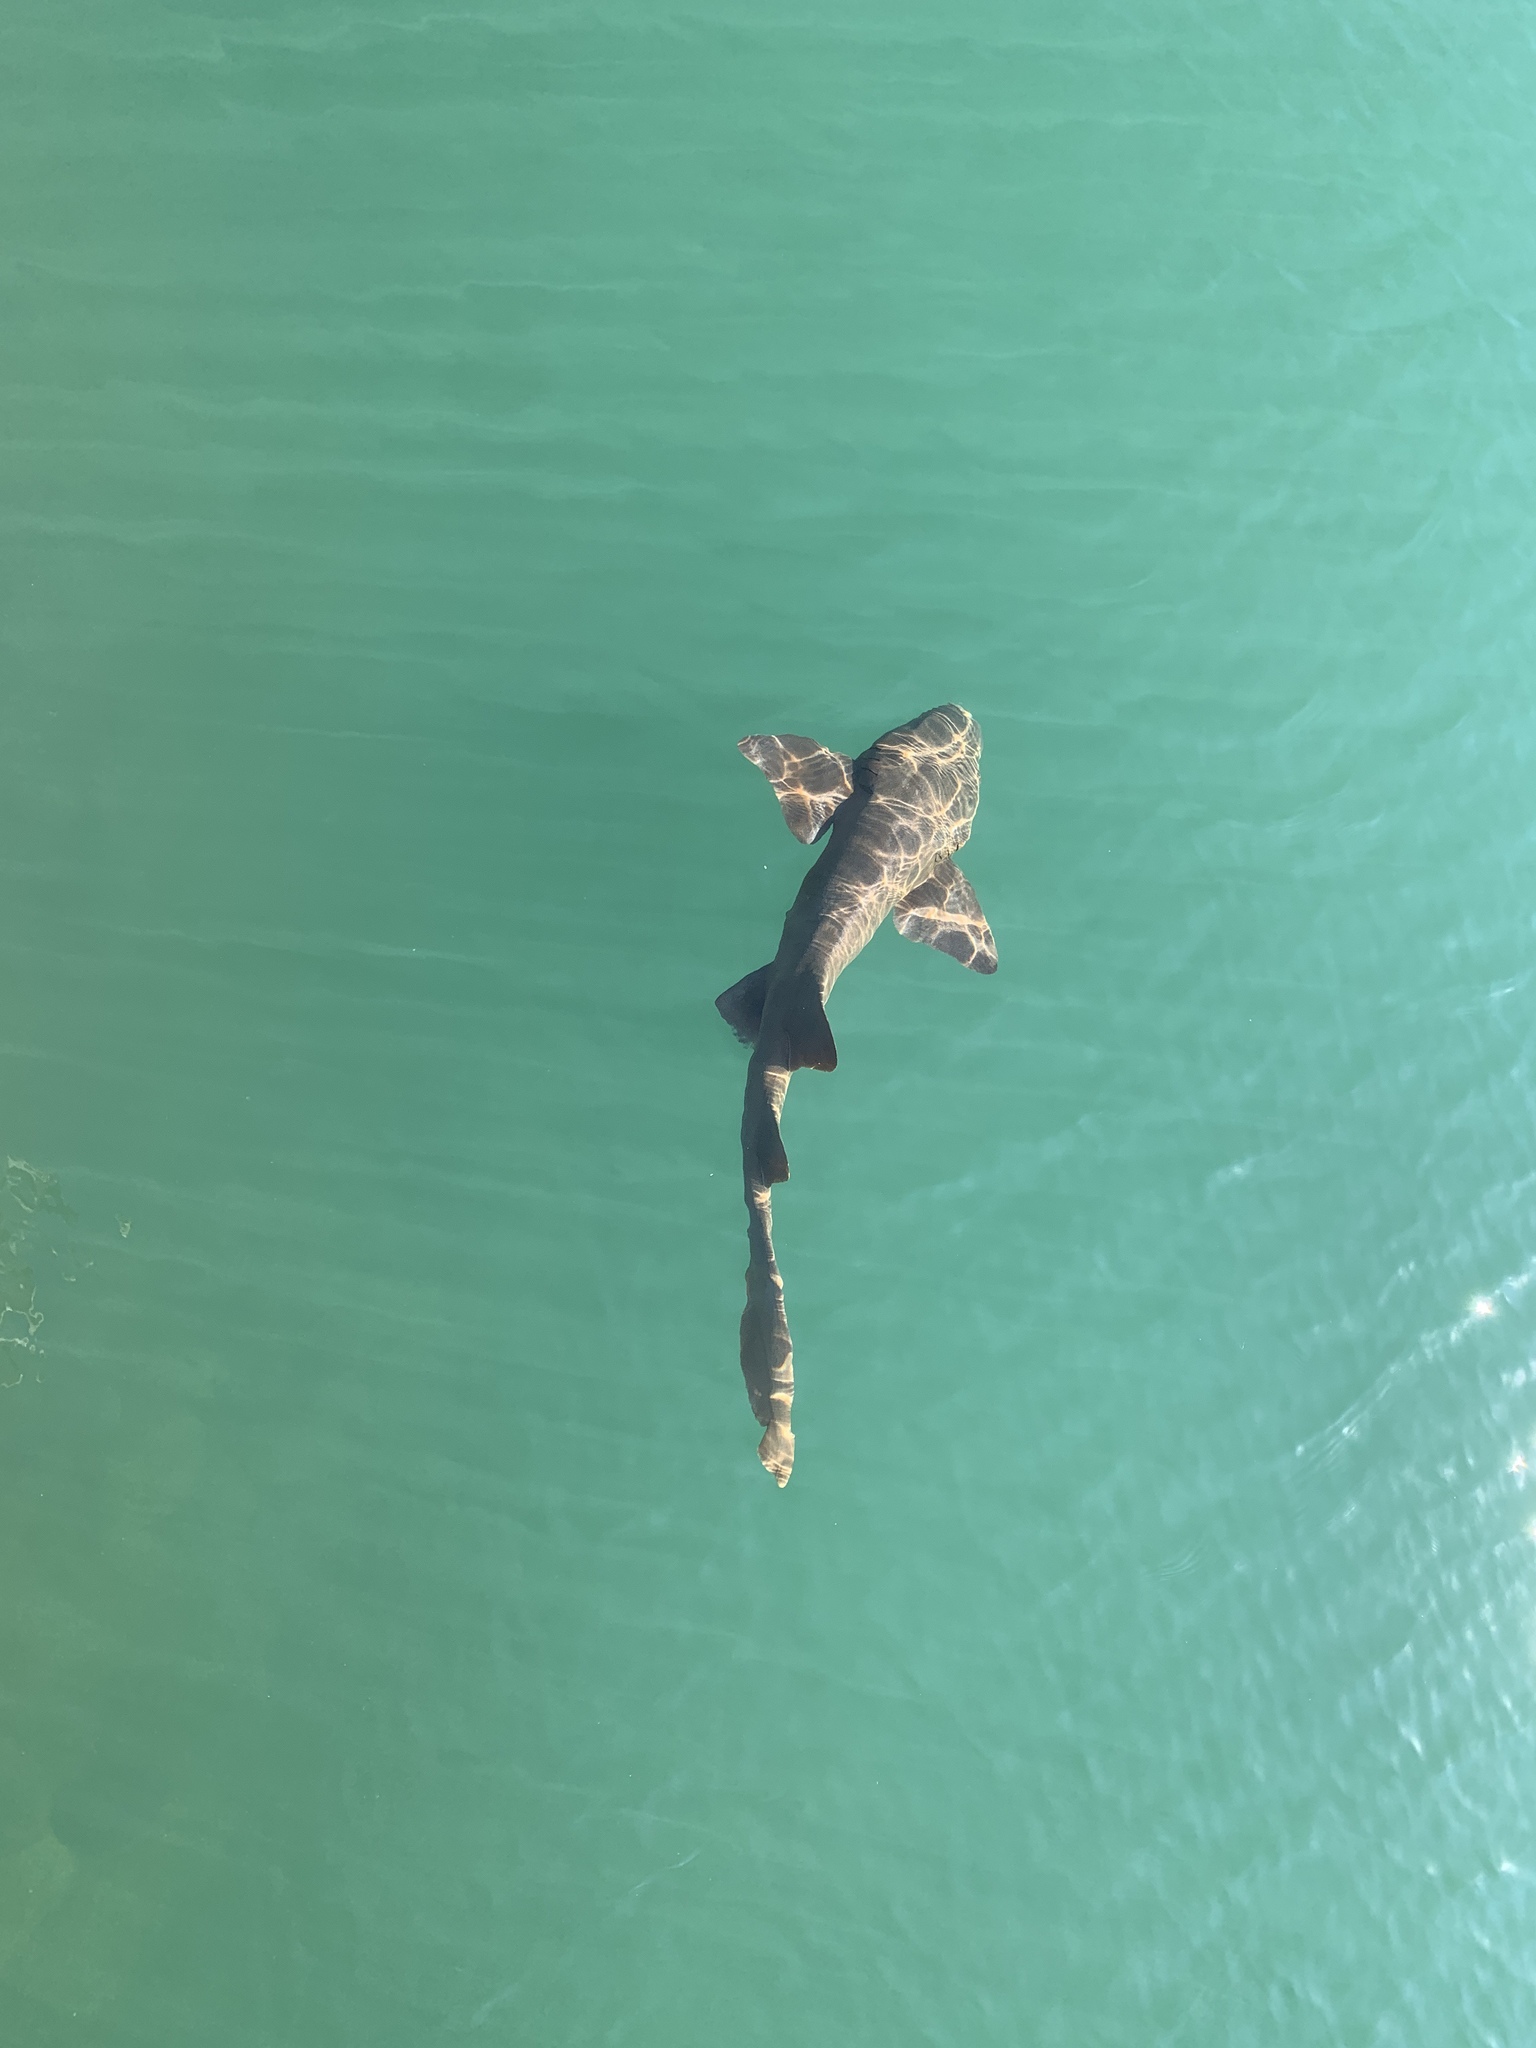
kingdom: Animalia
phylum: Chordata
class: Elasmobranchii
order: Orectolobiformes
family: Ginglymostomatidae
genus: Ginglymostoma
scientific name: Ginglymostoma cirratum
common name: Nurse shark
